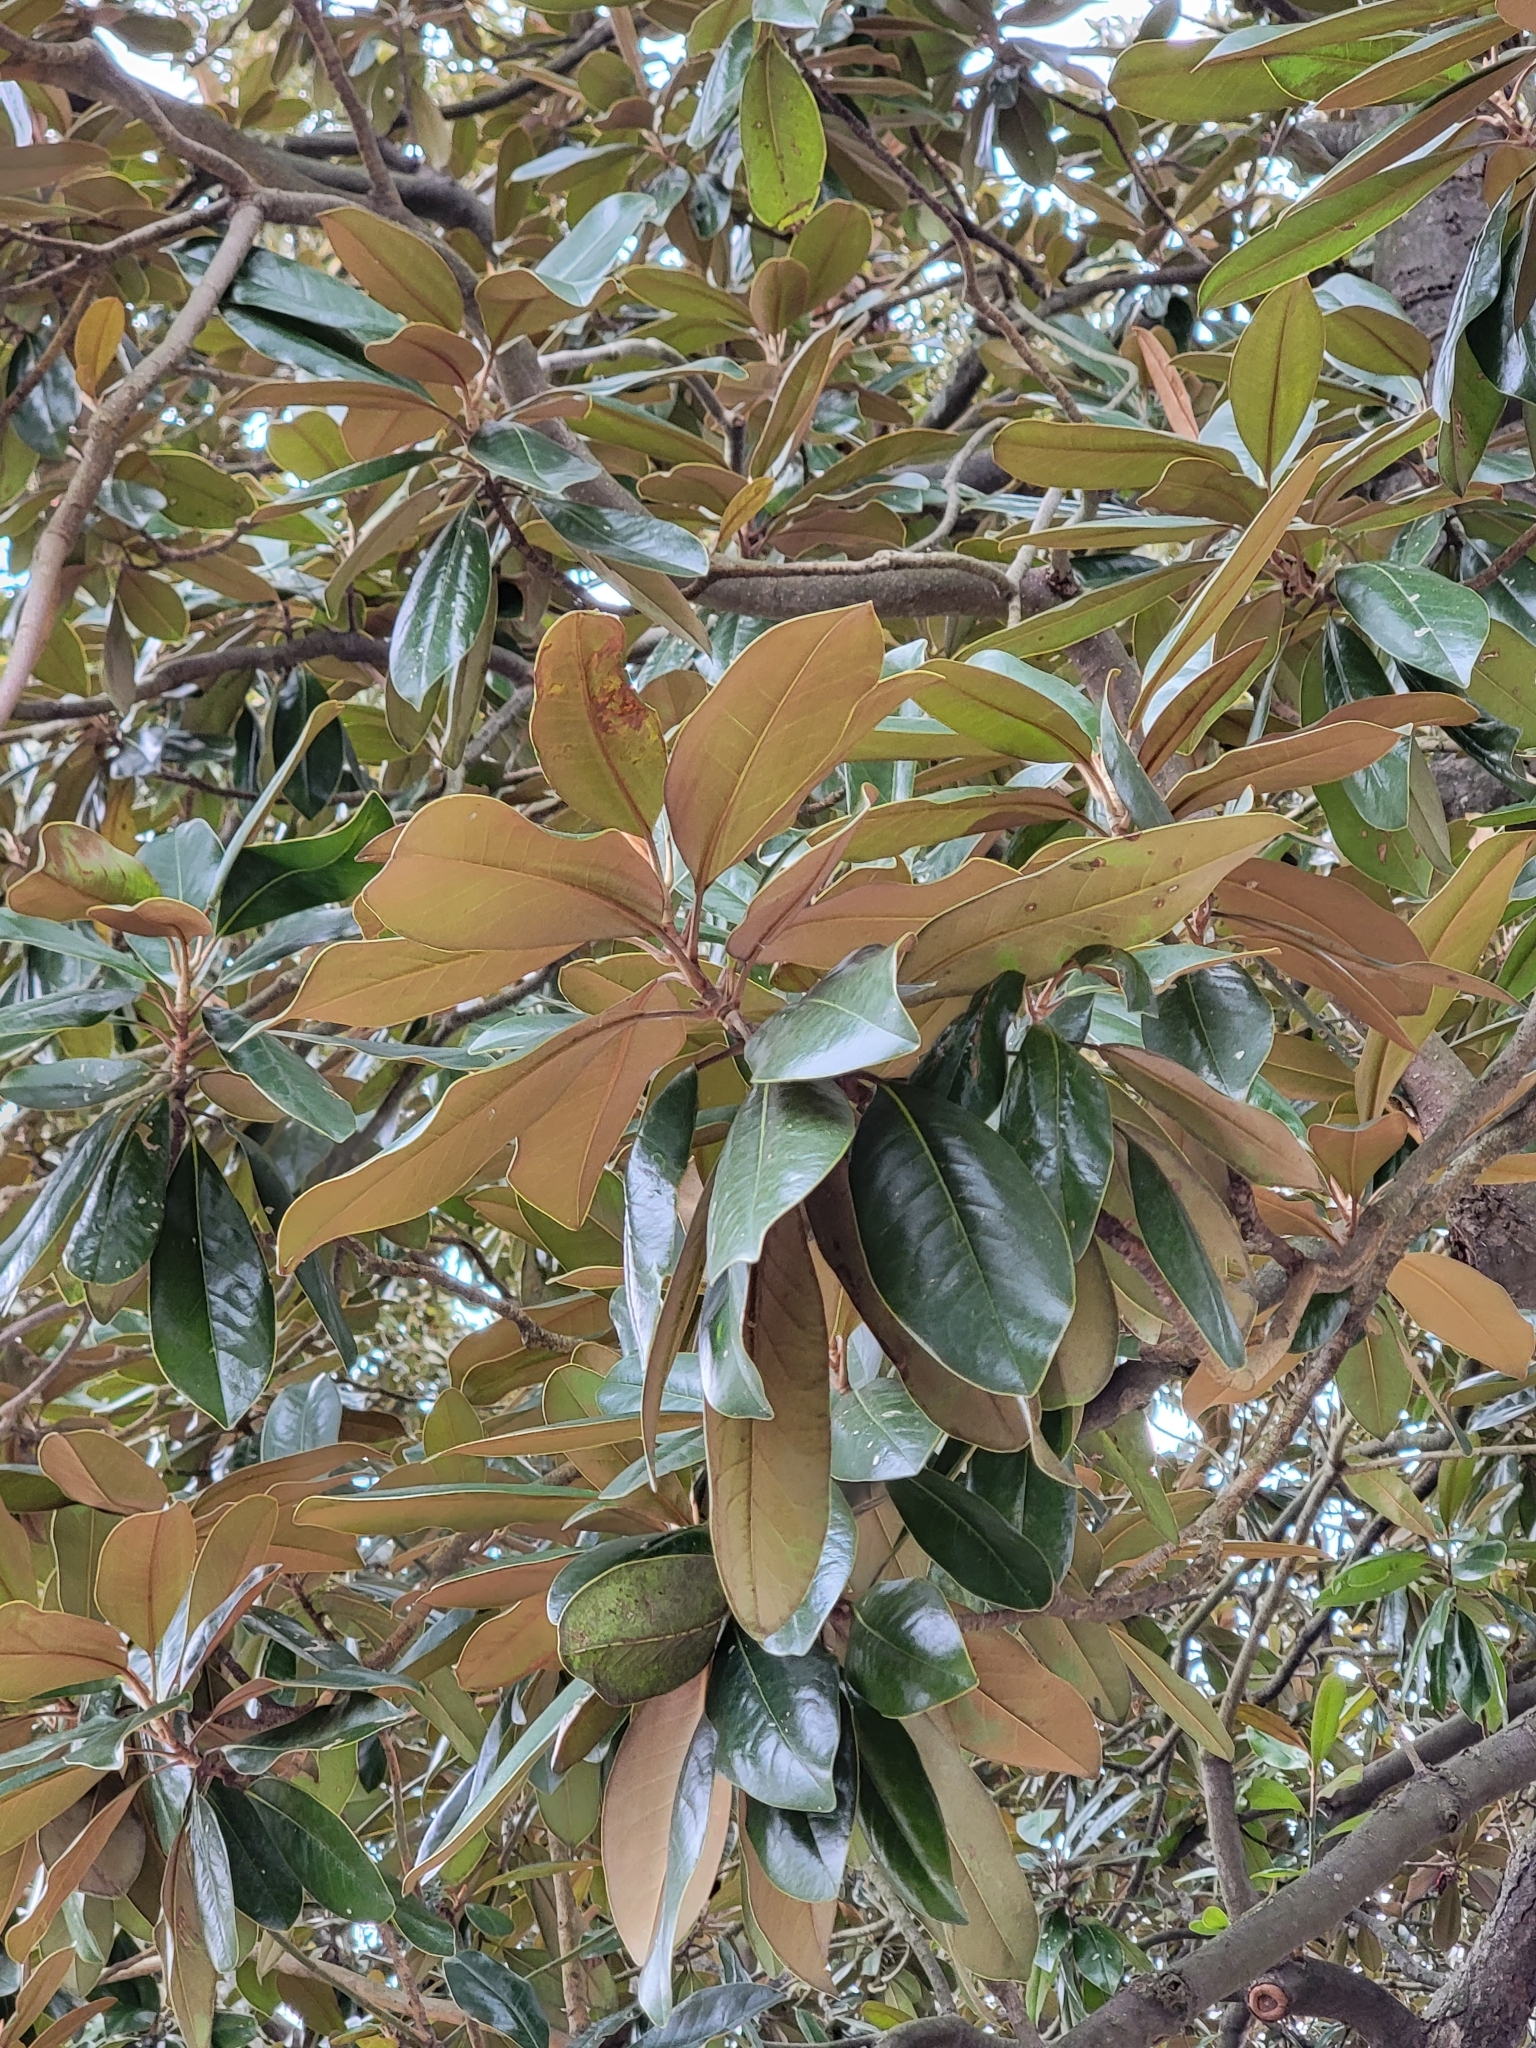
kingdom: Plantae
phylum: Tracheophyta
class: Magnoliopsida
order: Magnoliales
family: Magnoliaceae
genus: Magnolia
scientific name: Magnolia grandiflora
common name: Southern magnolia
